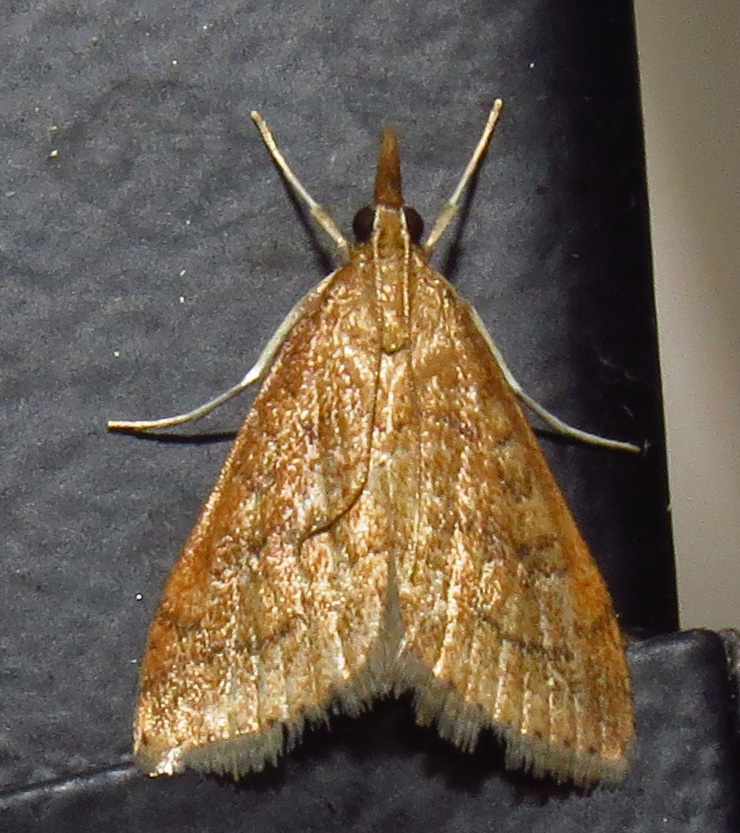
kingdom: Animalia
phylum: Arthropoda
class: Insecta
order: Lepidoptera
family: Crambidae
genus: Udea
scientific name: Udea rubigalis
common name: Celery leaftier moth
